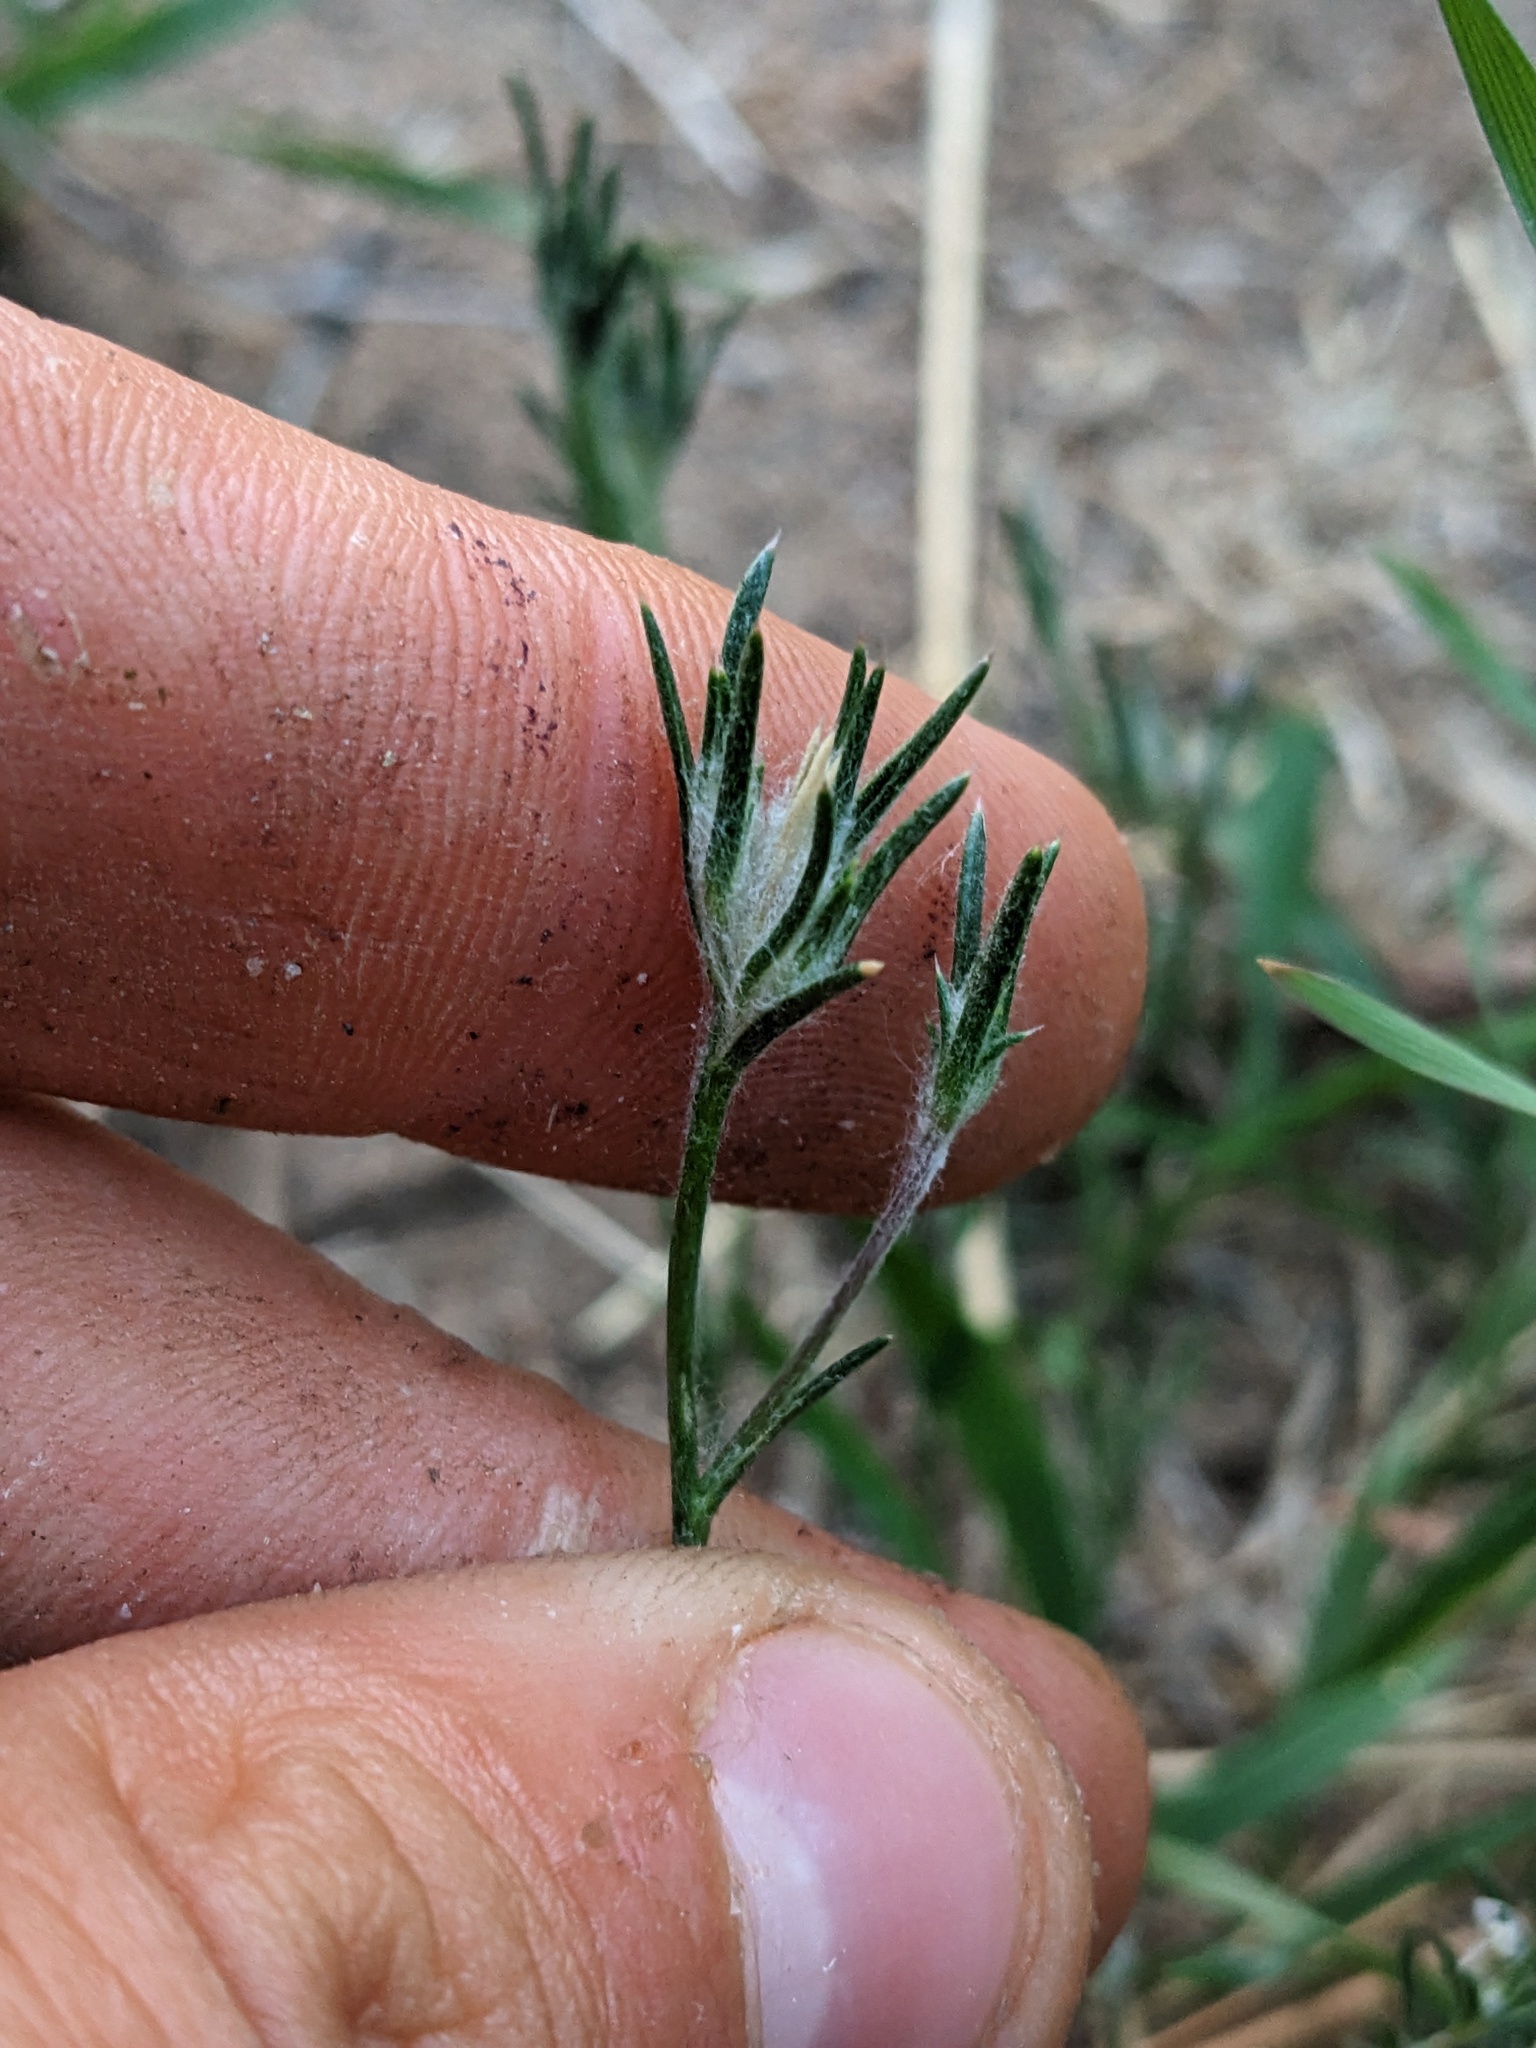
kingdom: Plantae
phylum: Tracheophyta
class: Magnoliopsida
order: Ericales
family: Polemoniaceae
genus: Eriastrum
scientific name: Eriastrum signatum
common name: Great basin woollystar
